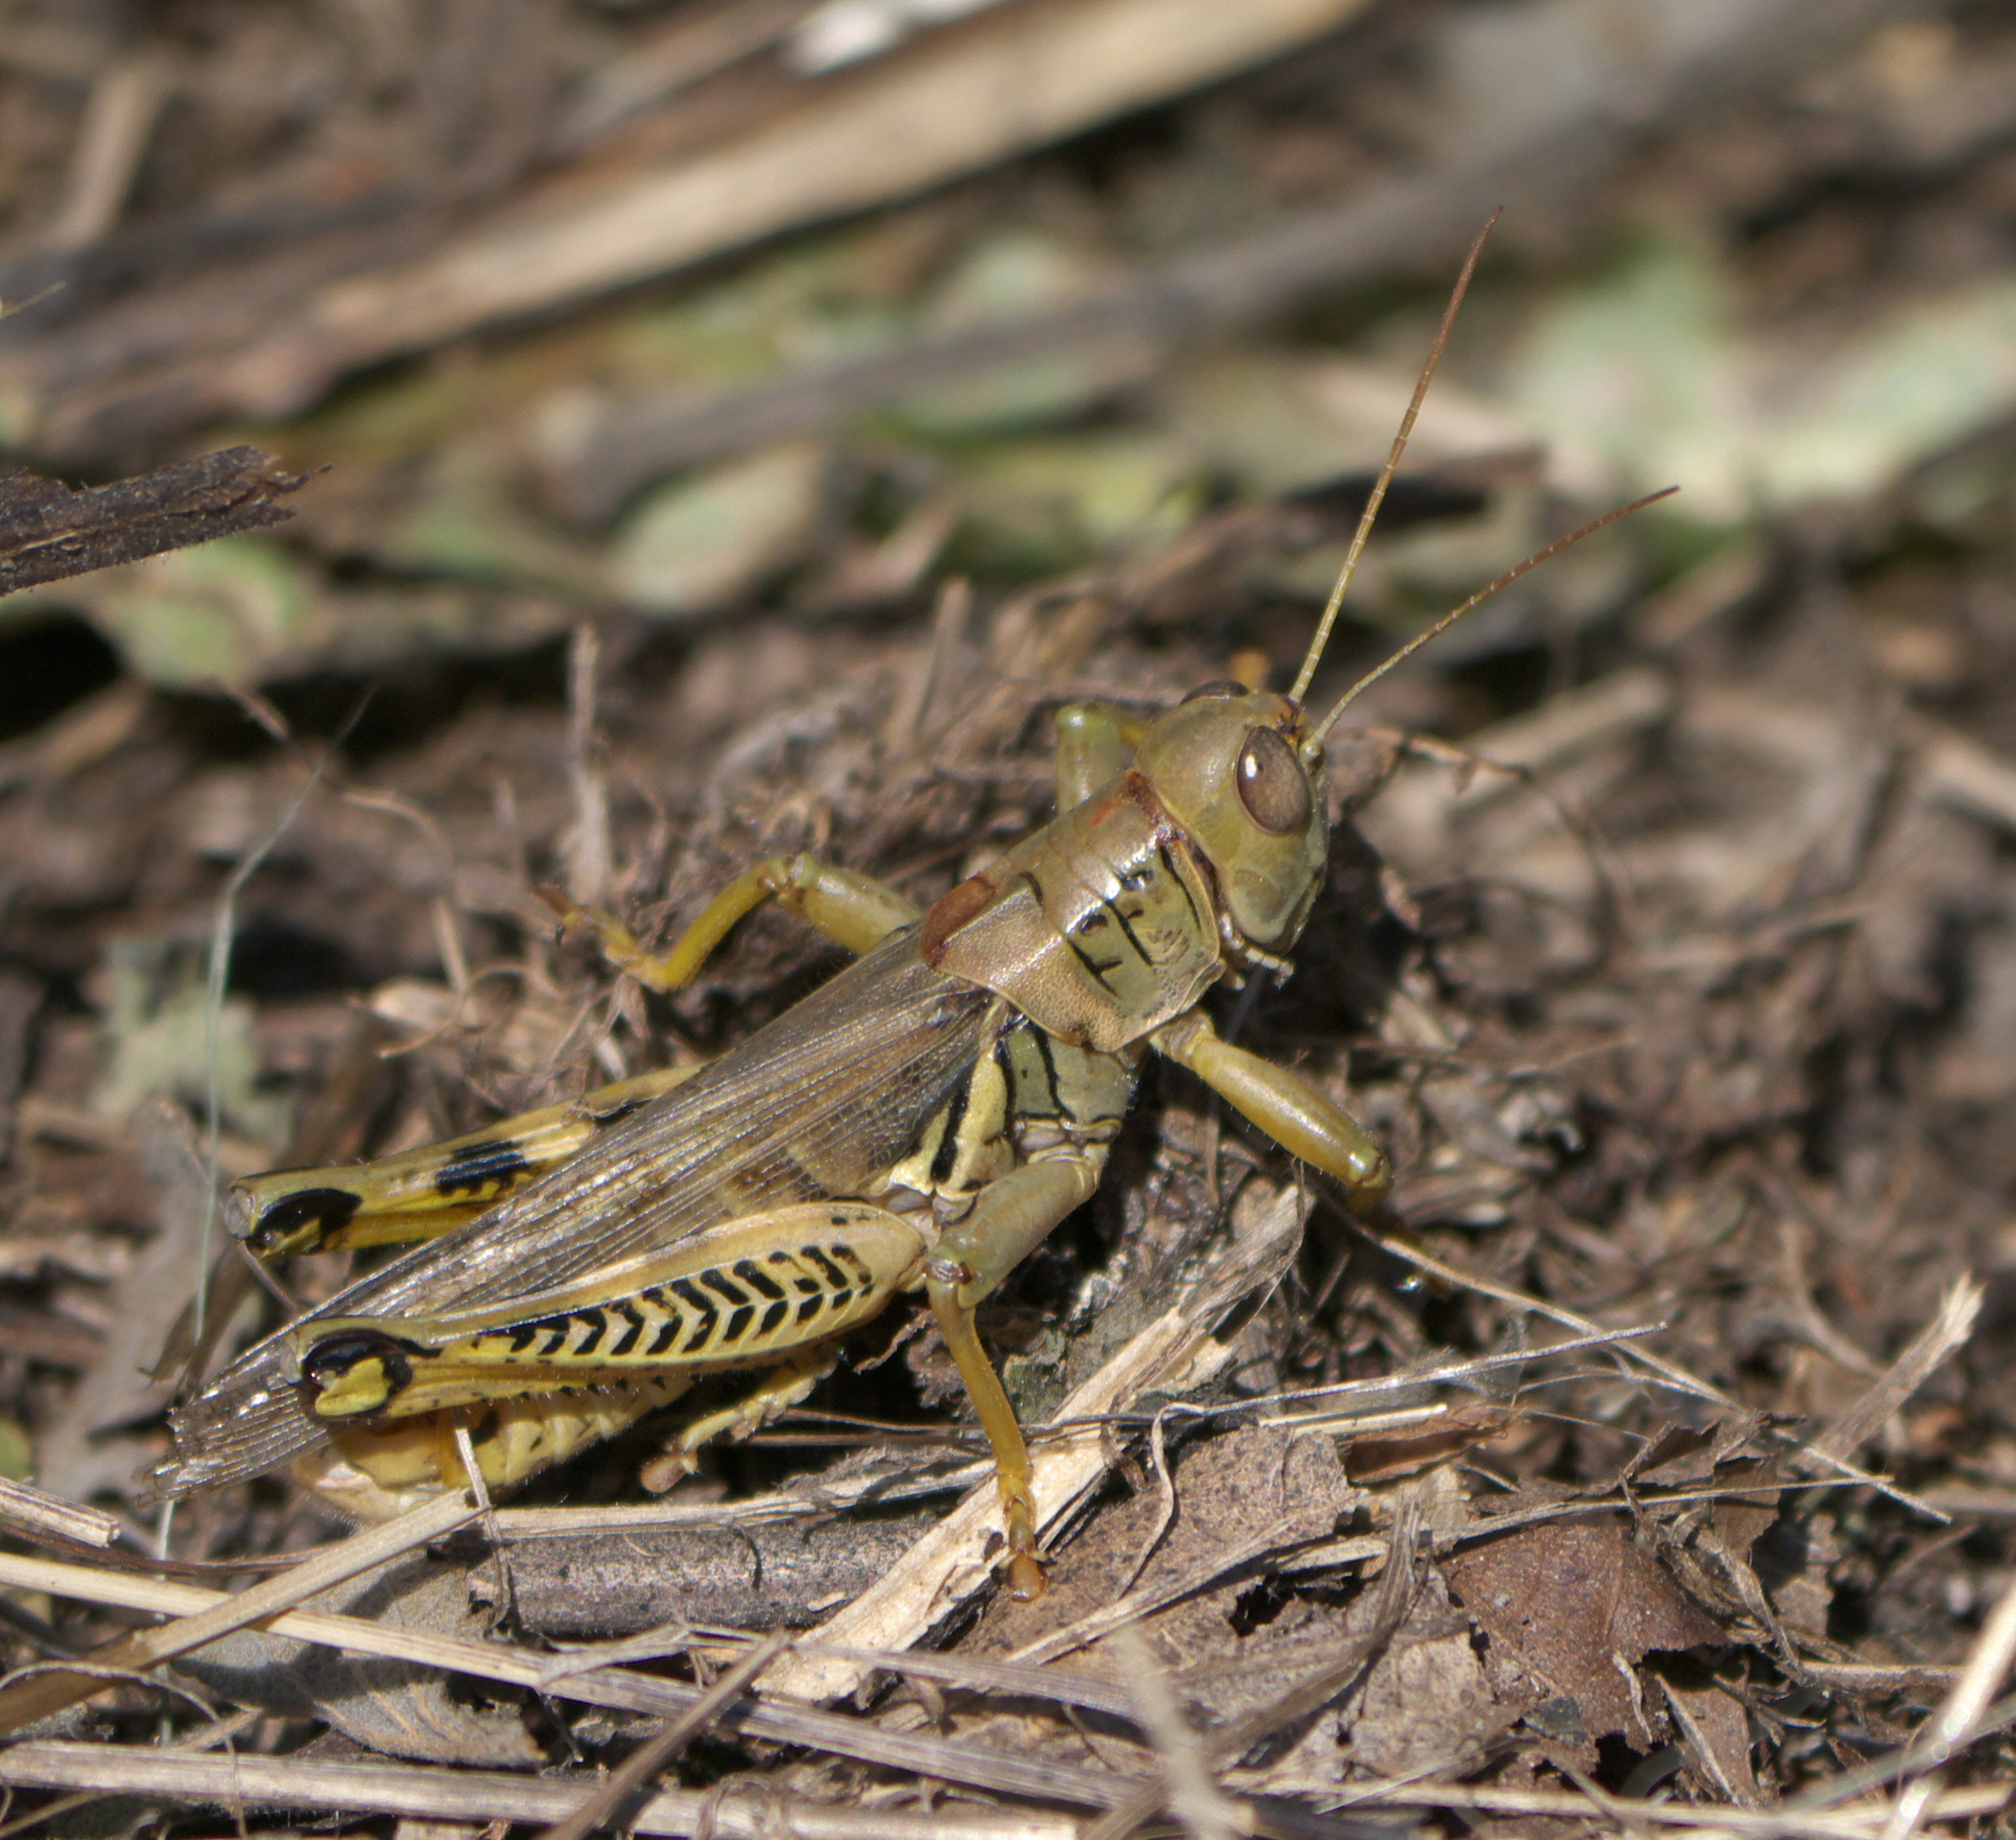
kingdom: Animalia
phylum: Arthropoda
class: Insecta
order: Orthoptera
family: Acrididae
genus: Melanoplus
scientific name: Melanoplus differentialis
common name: Differential grasshopper
